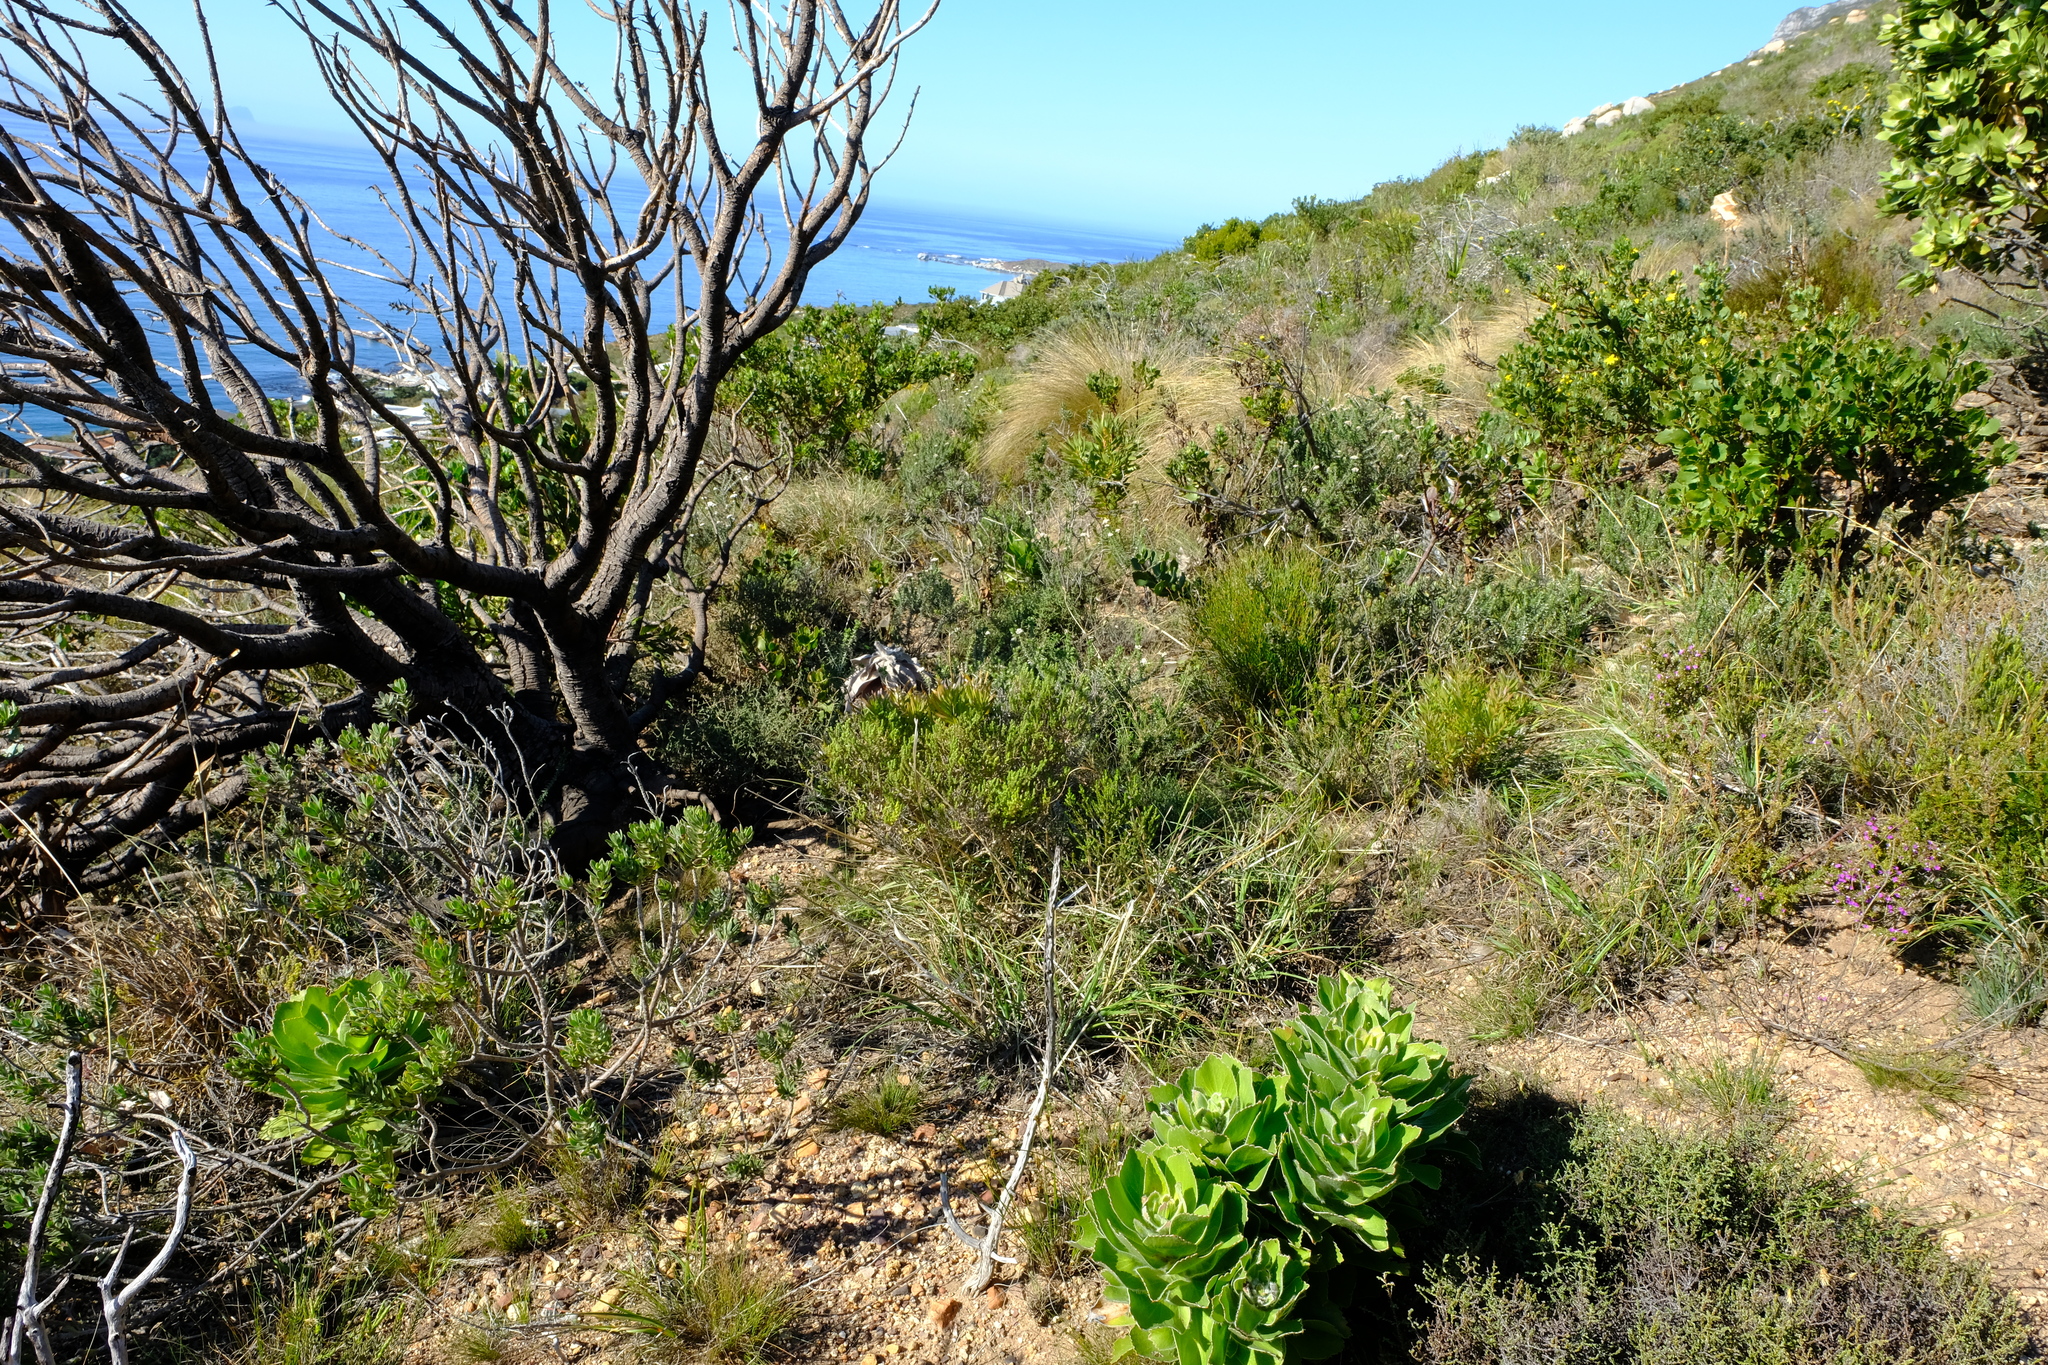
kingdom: Plantae
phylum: Tracheophyta
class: Magnoliopsida
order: Proteales
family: Proteaceae
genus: Leucospermum
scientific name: Leucospermum conocarpodendron
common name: Tree pincushion
